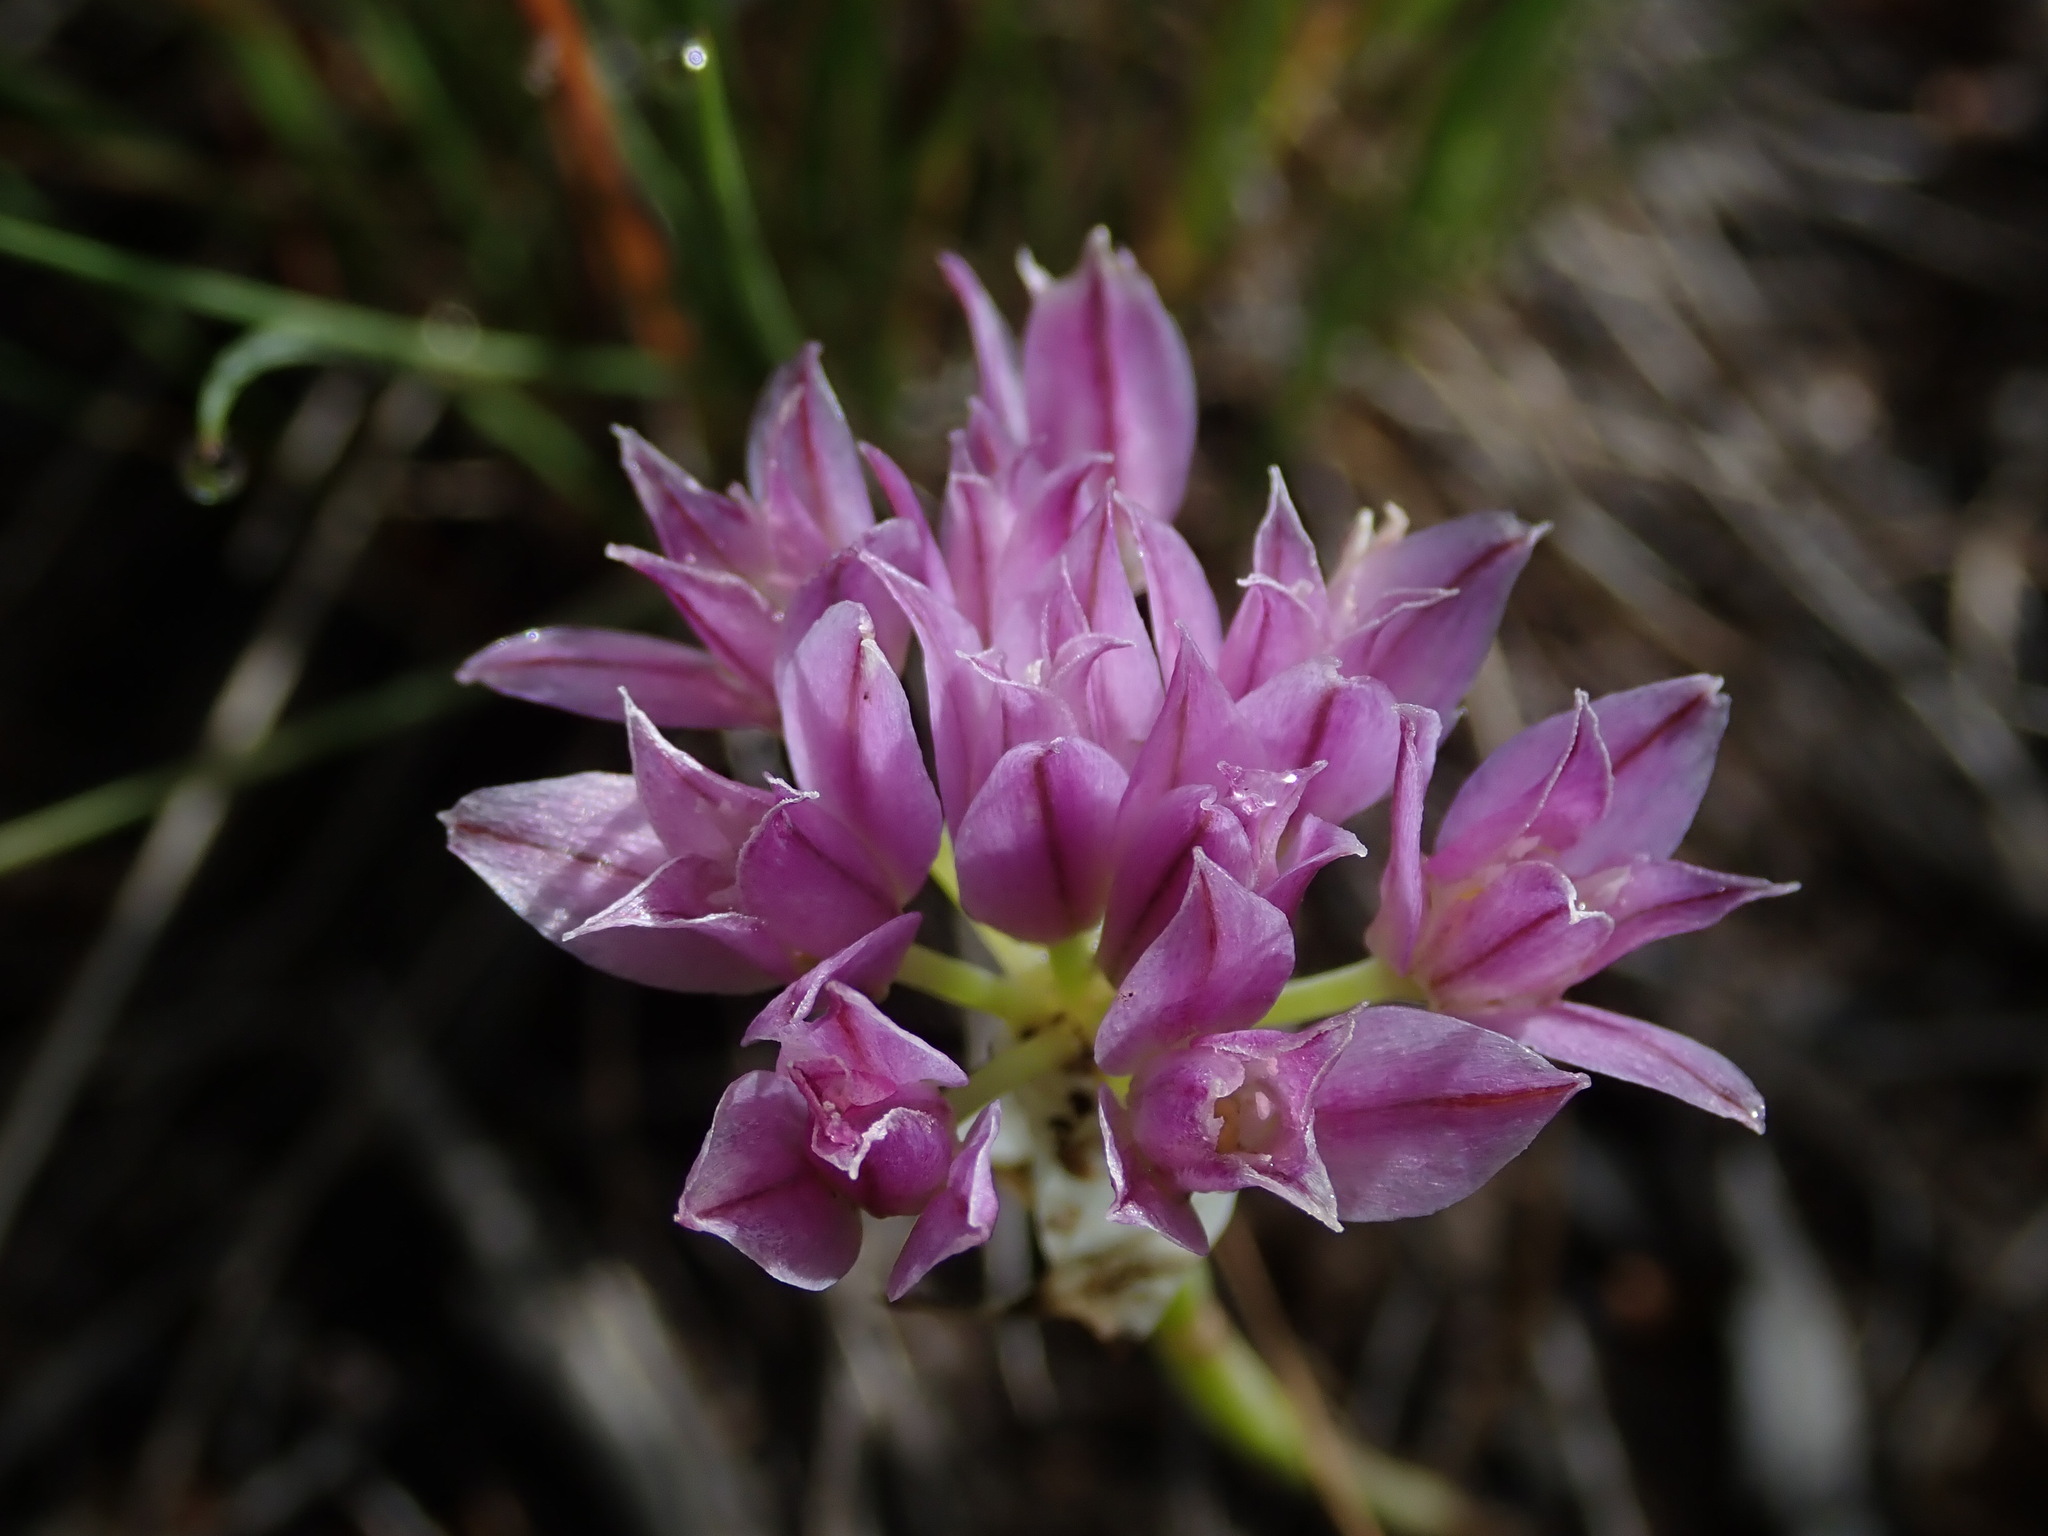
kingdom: Plantae
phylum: Tracheophyta
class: Liliopsida
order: Asparagales
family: Amaryllidaceae
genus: Allium
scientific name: Allium acuminatum
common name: Hooker's onion
